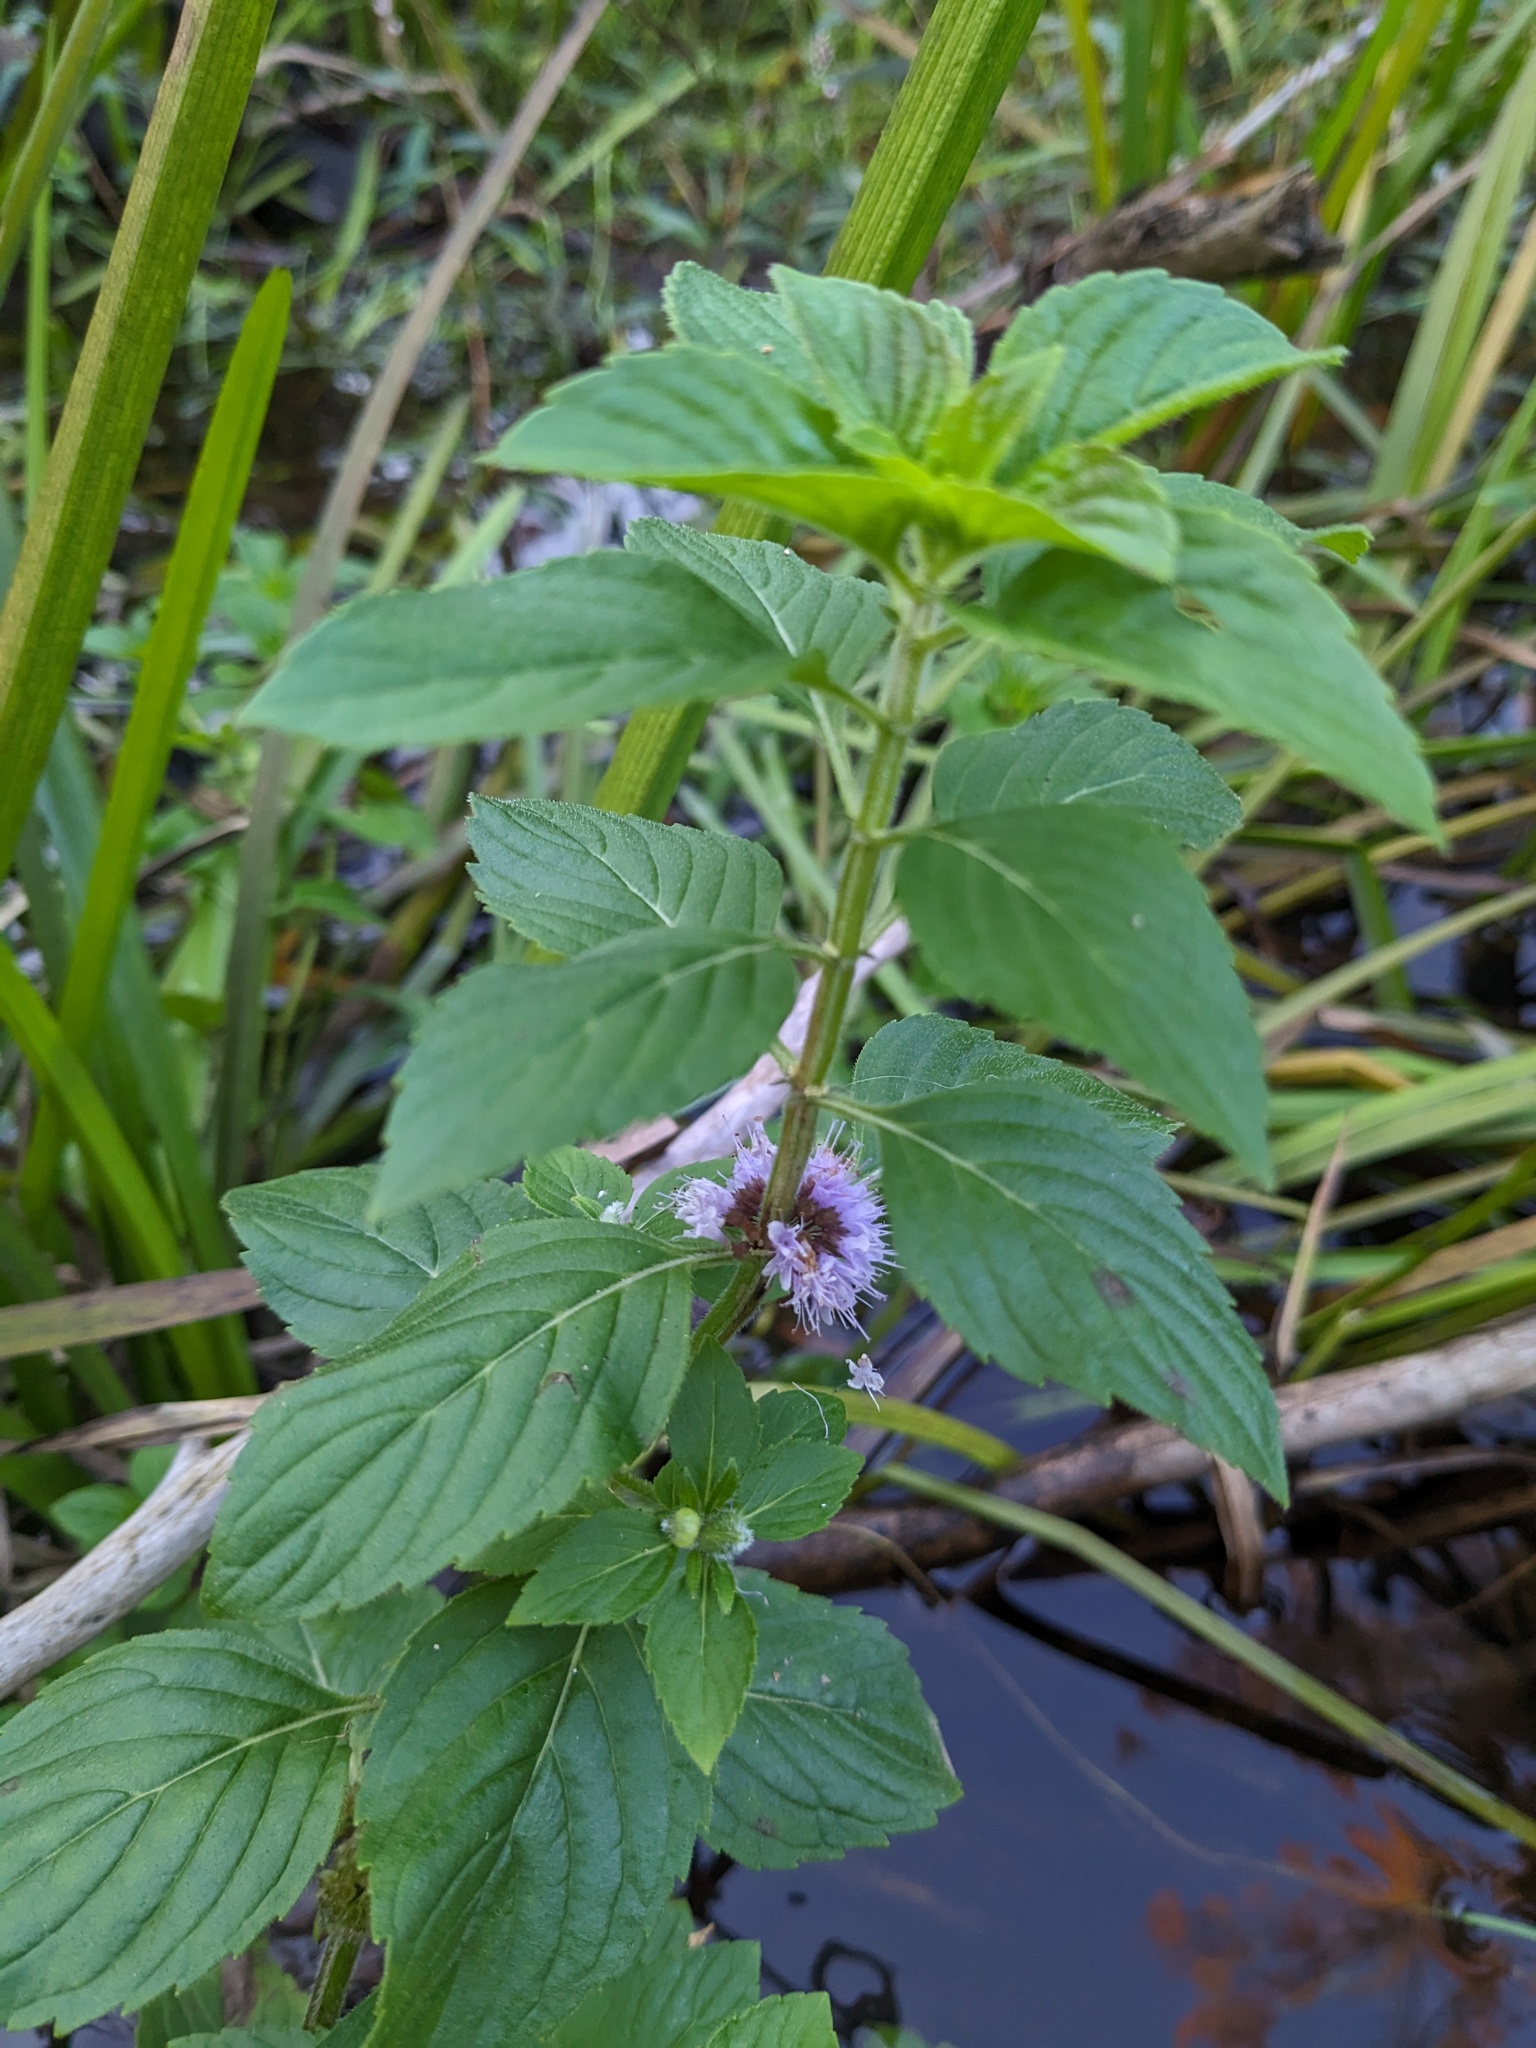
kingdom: Plantae
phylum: Tracheophyta
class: Magnoliopsida
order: Lamiales
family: Lamiaceae
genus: Mentha
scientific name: Mentha canadensis
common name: American corn mint
